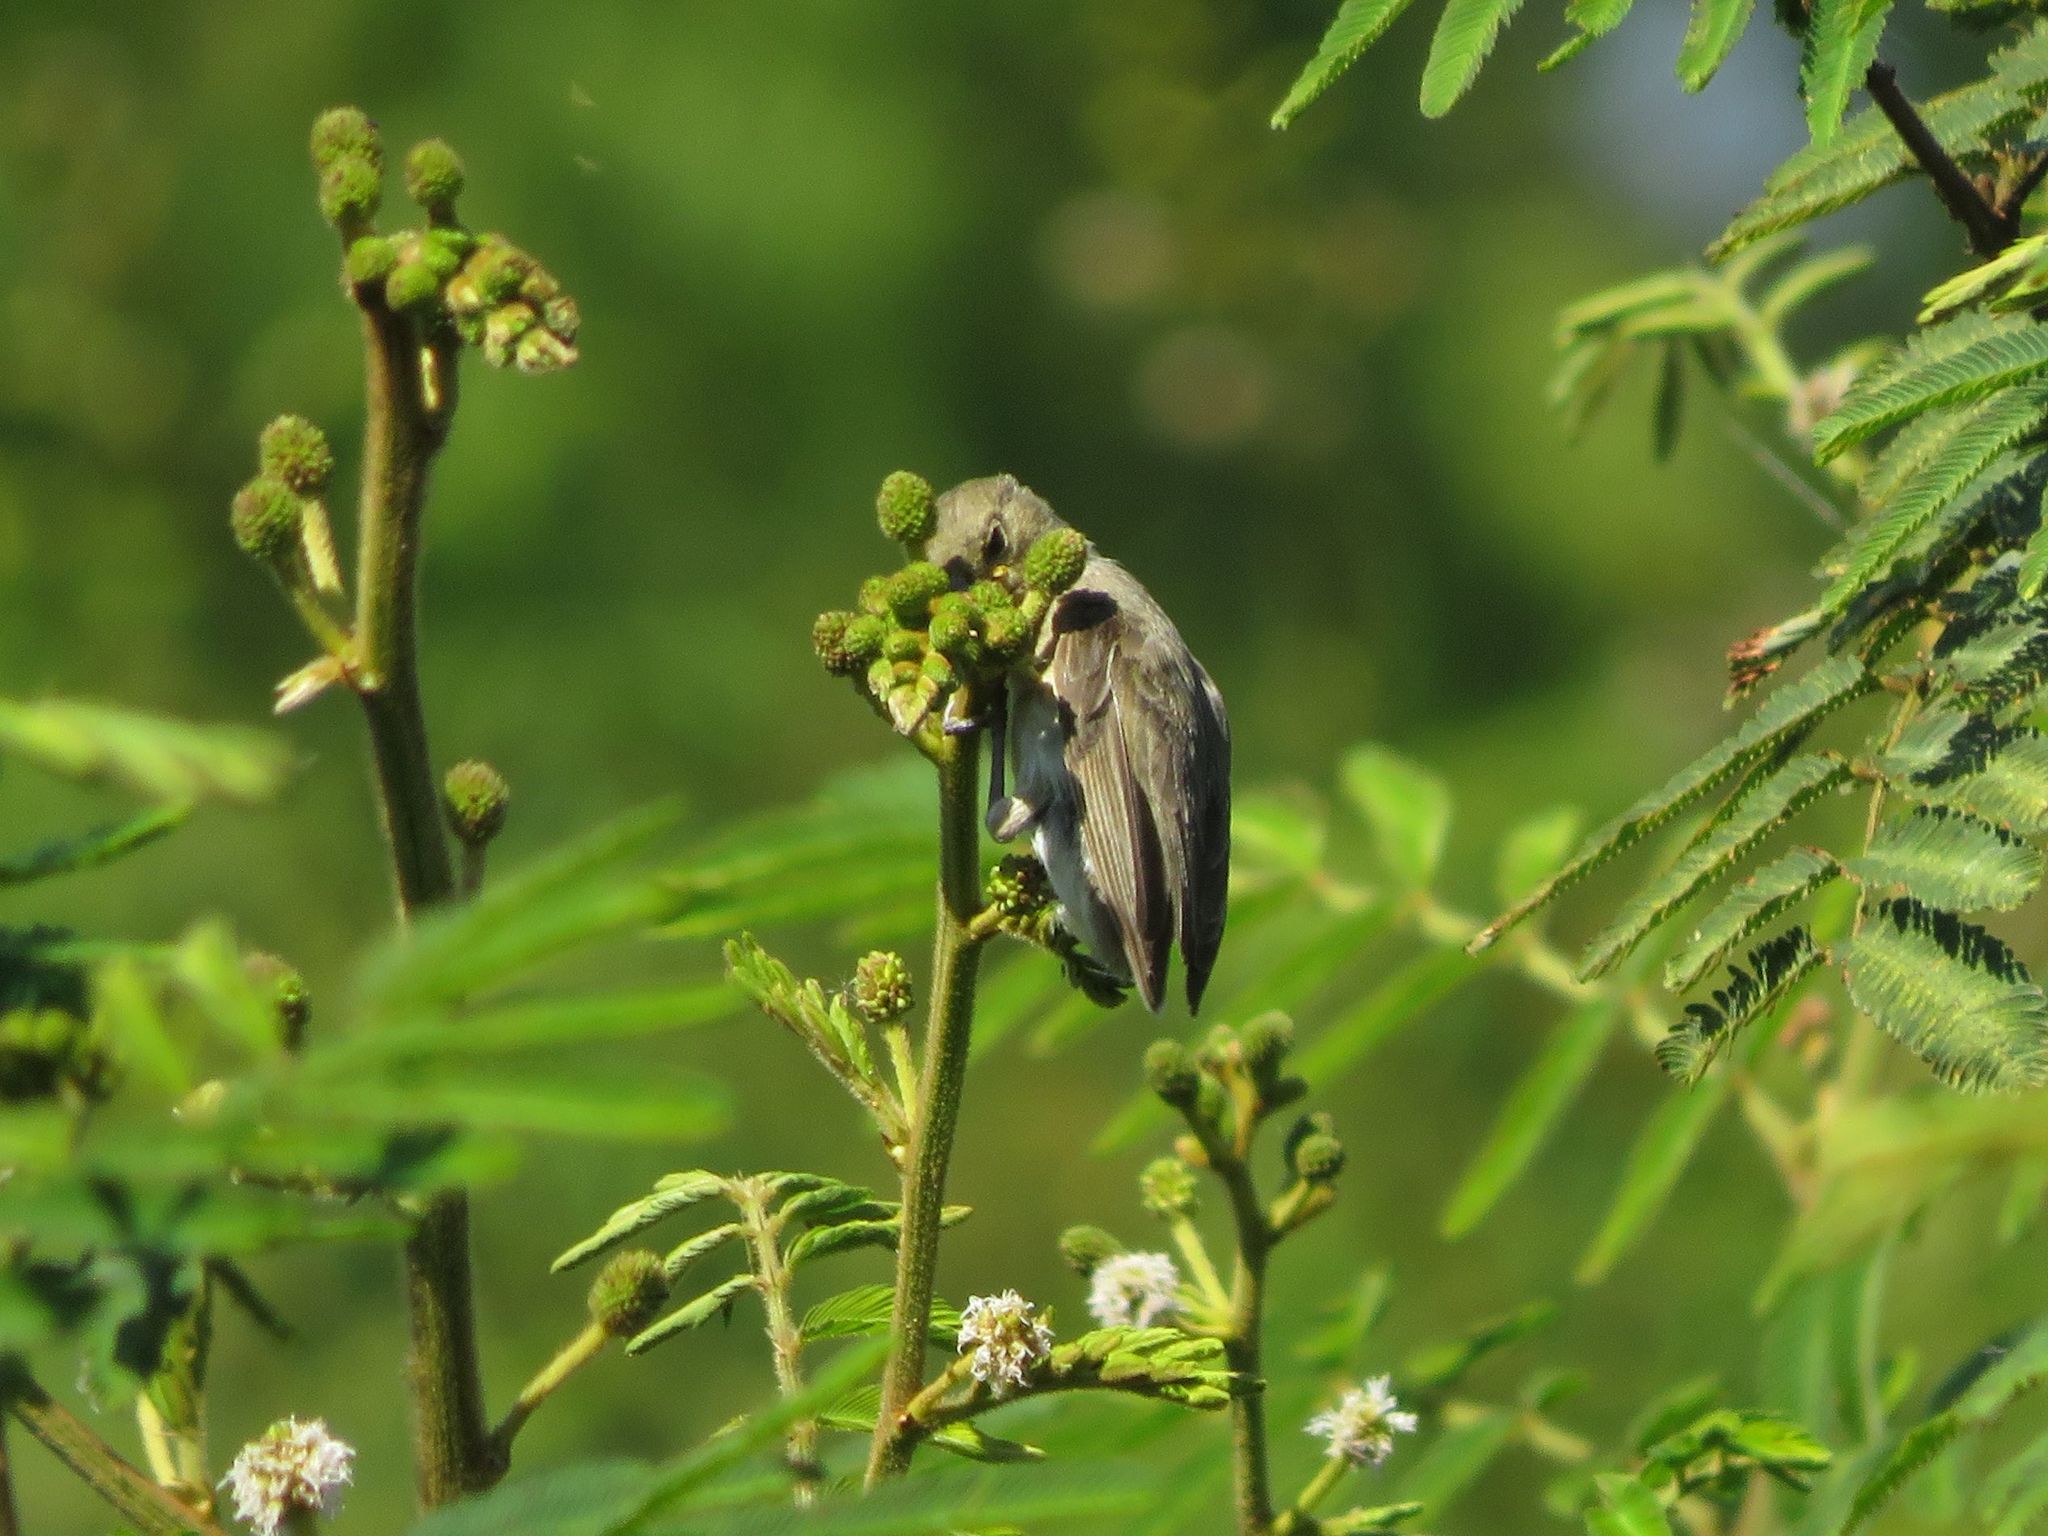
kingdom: Animalia
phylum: Chordata
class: Aves
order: Passeriformes
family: Thraupidae
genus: Sporophila
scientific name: Sporophila caerulescens
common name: Double-collared seedeater
